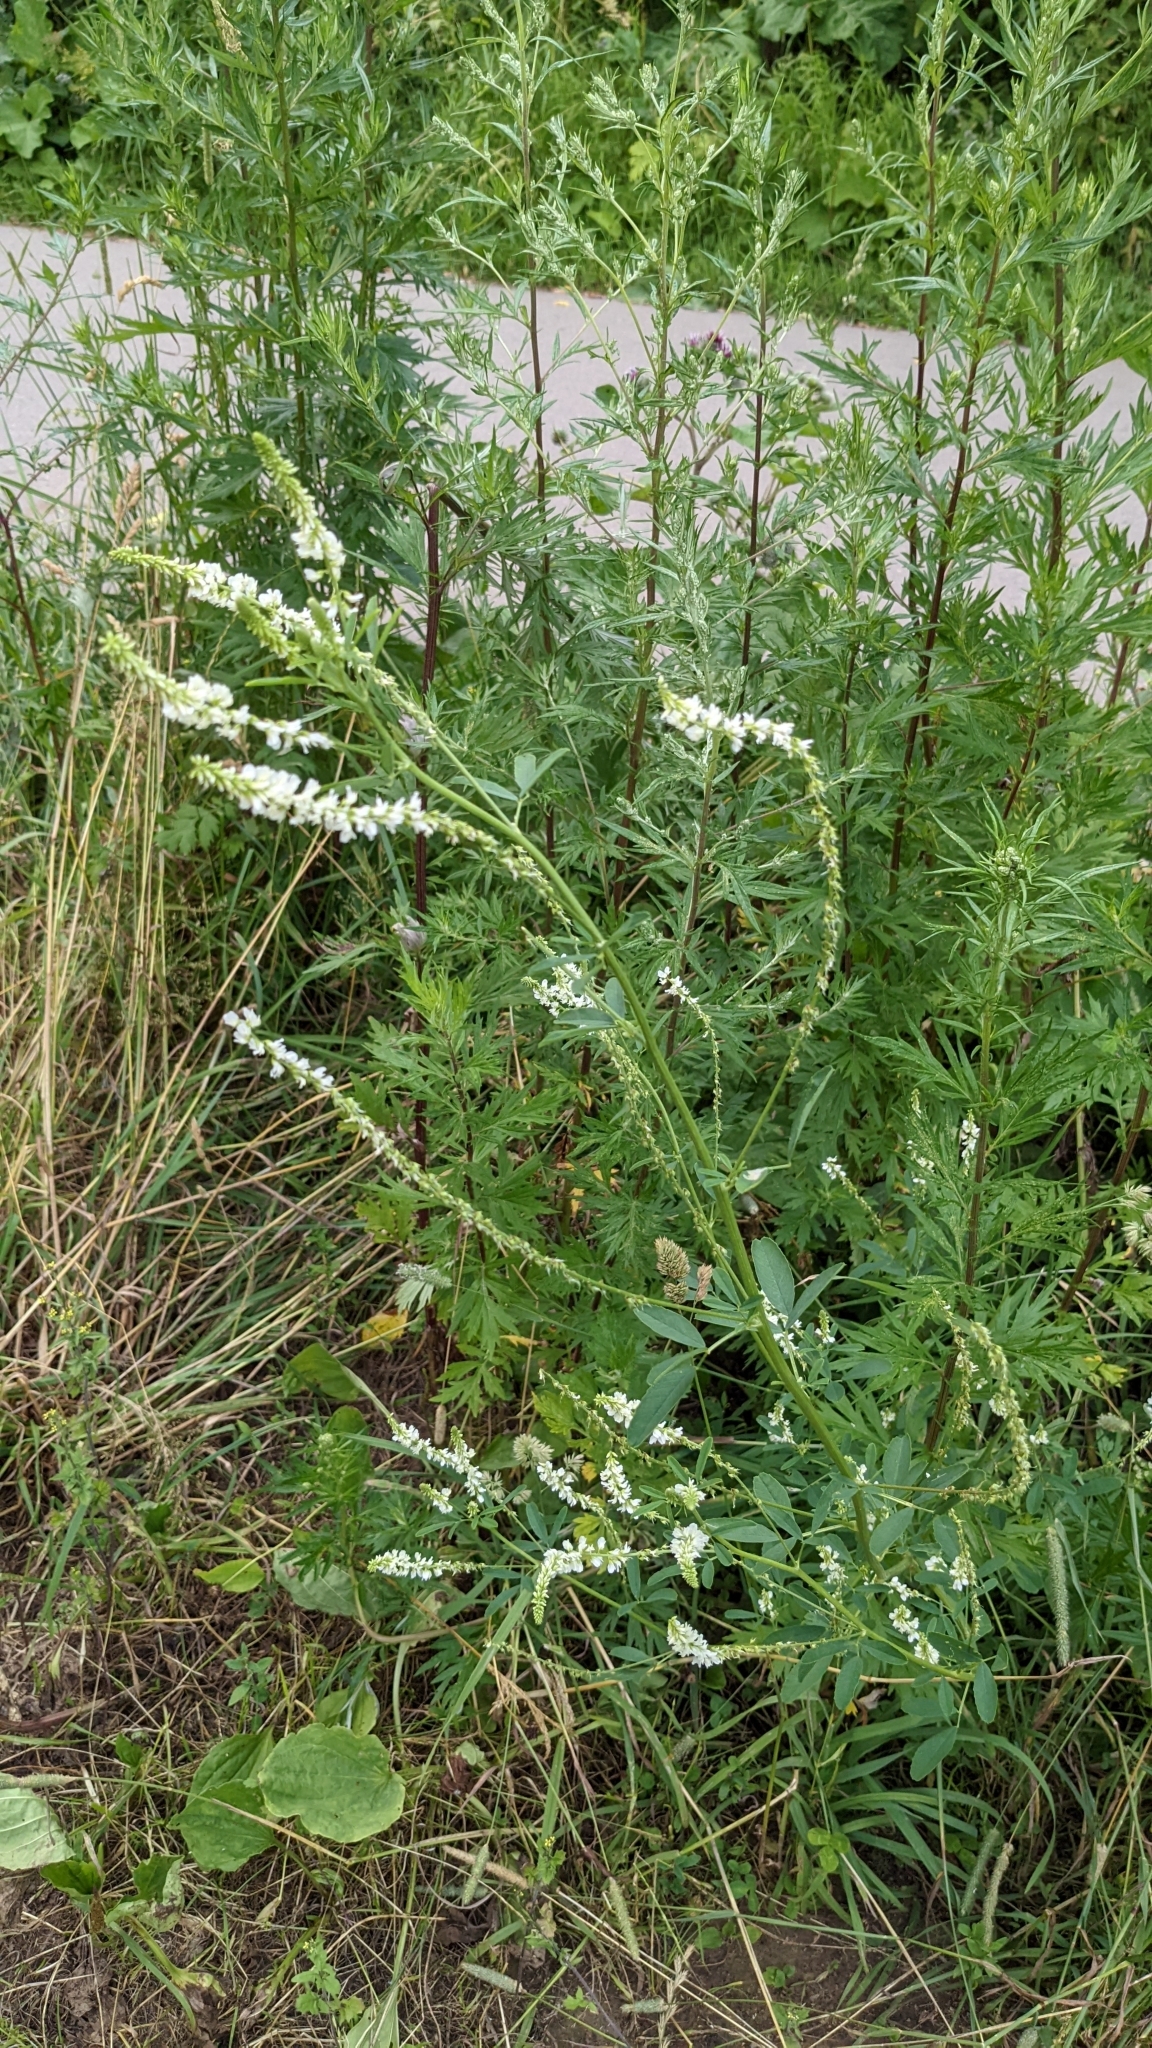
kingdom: Plantae
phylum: Tracheophyta
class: Magnoliopsida
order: Fabales
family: Fabaceae
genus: Melilotus
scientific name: Melilotus albus
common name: White melilot
